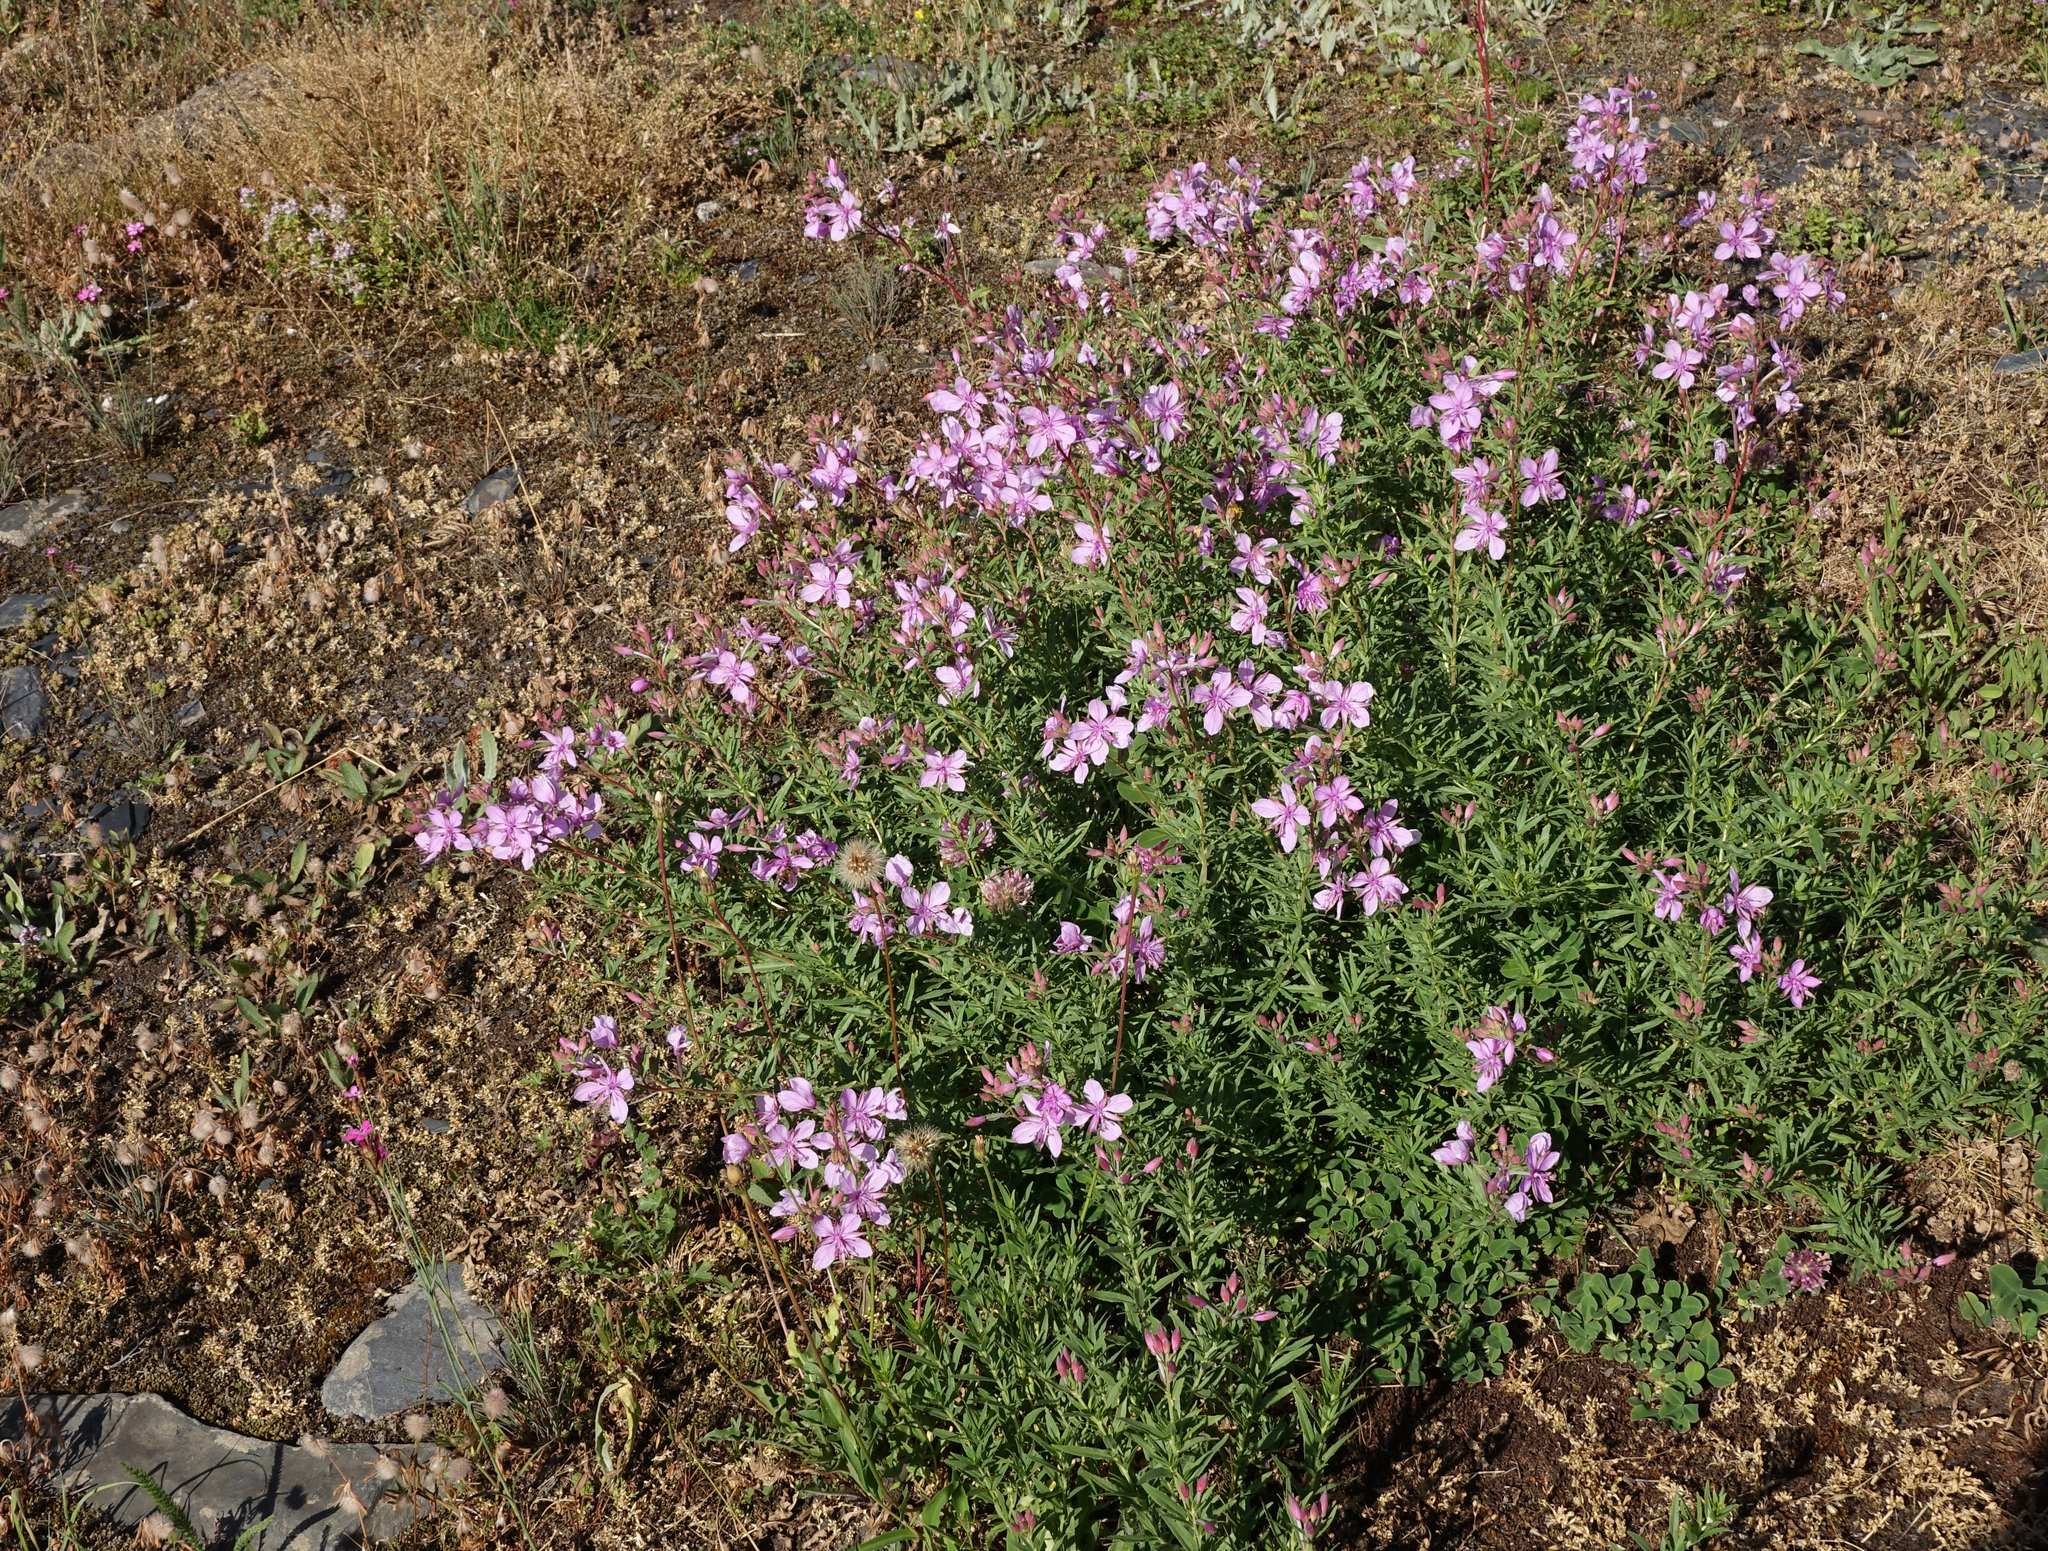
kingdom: Plantae
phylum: Tracheophyta
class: Magnoliopsida
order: Myrtales
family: Onagraceae
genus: Chamaenerion
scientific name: Chamaenerion colchicum
